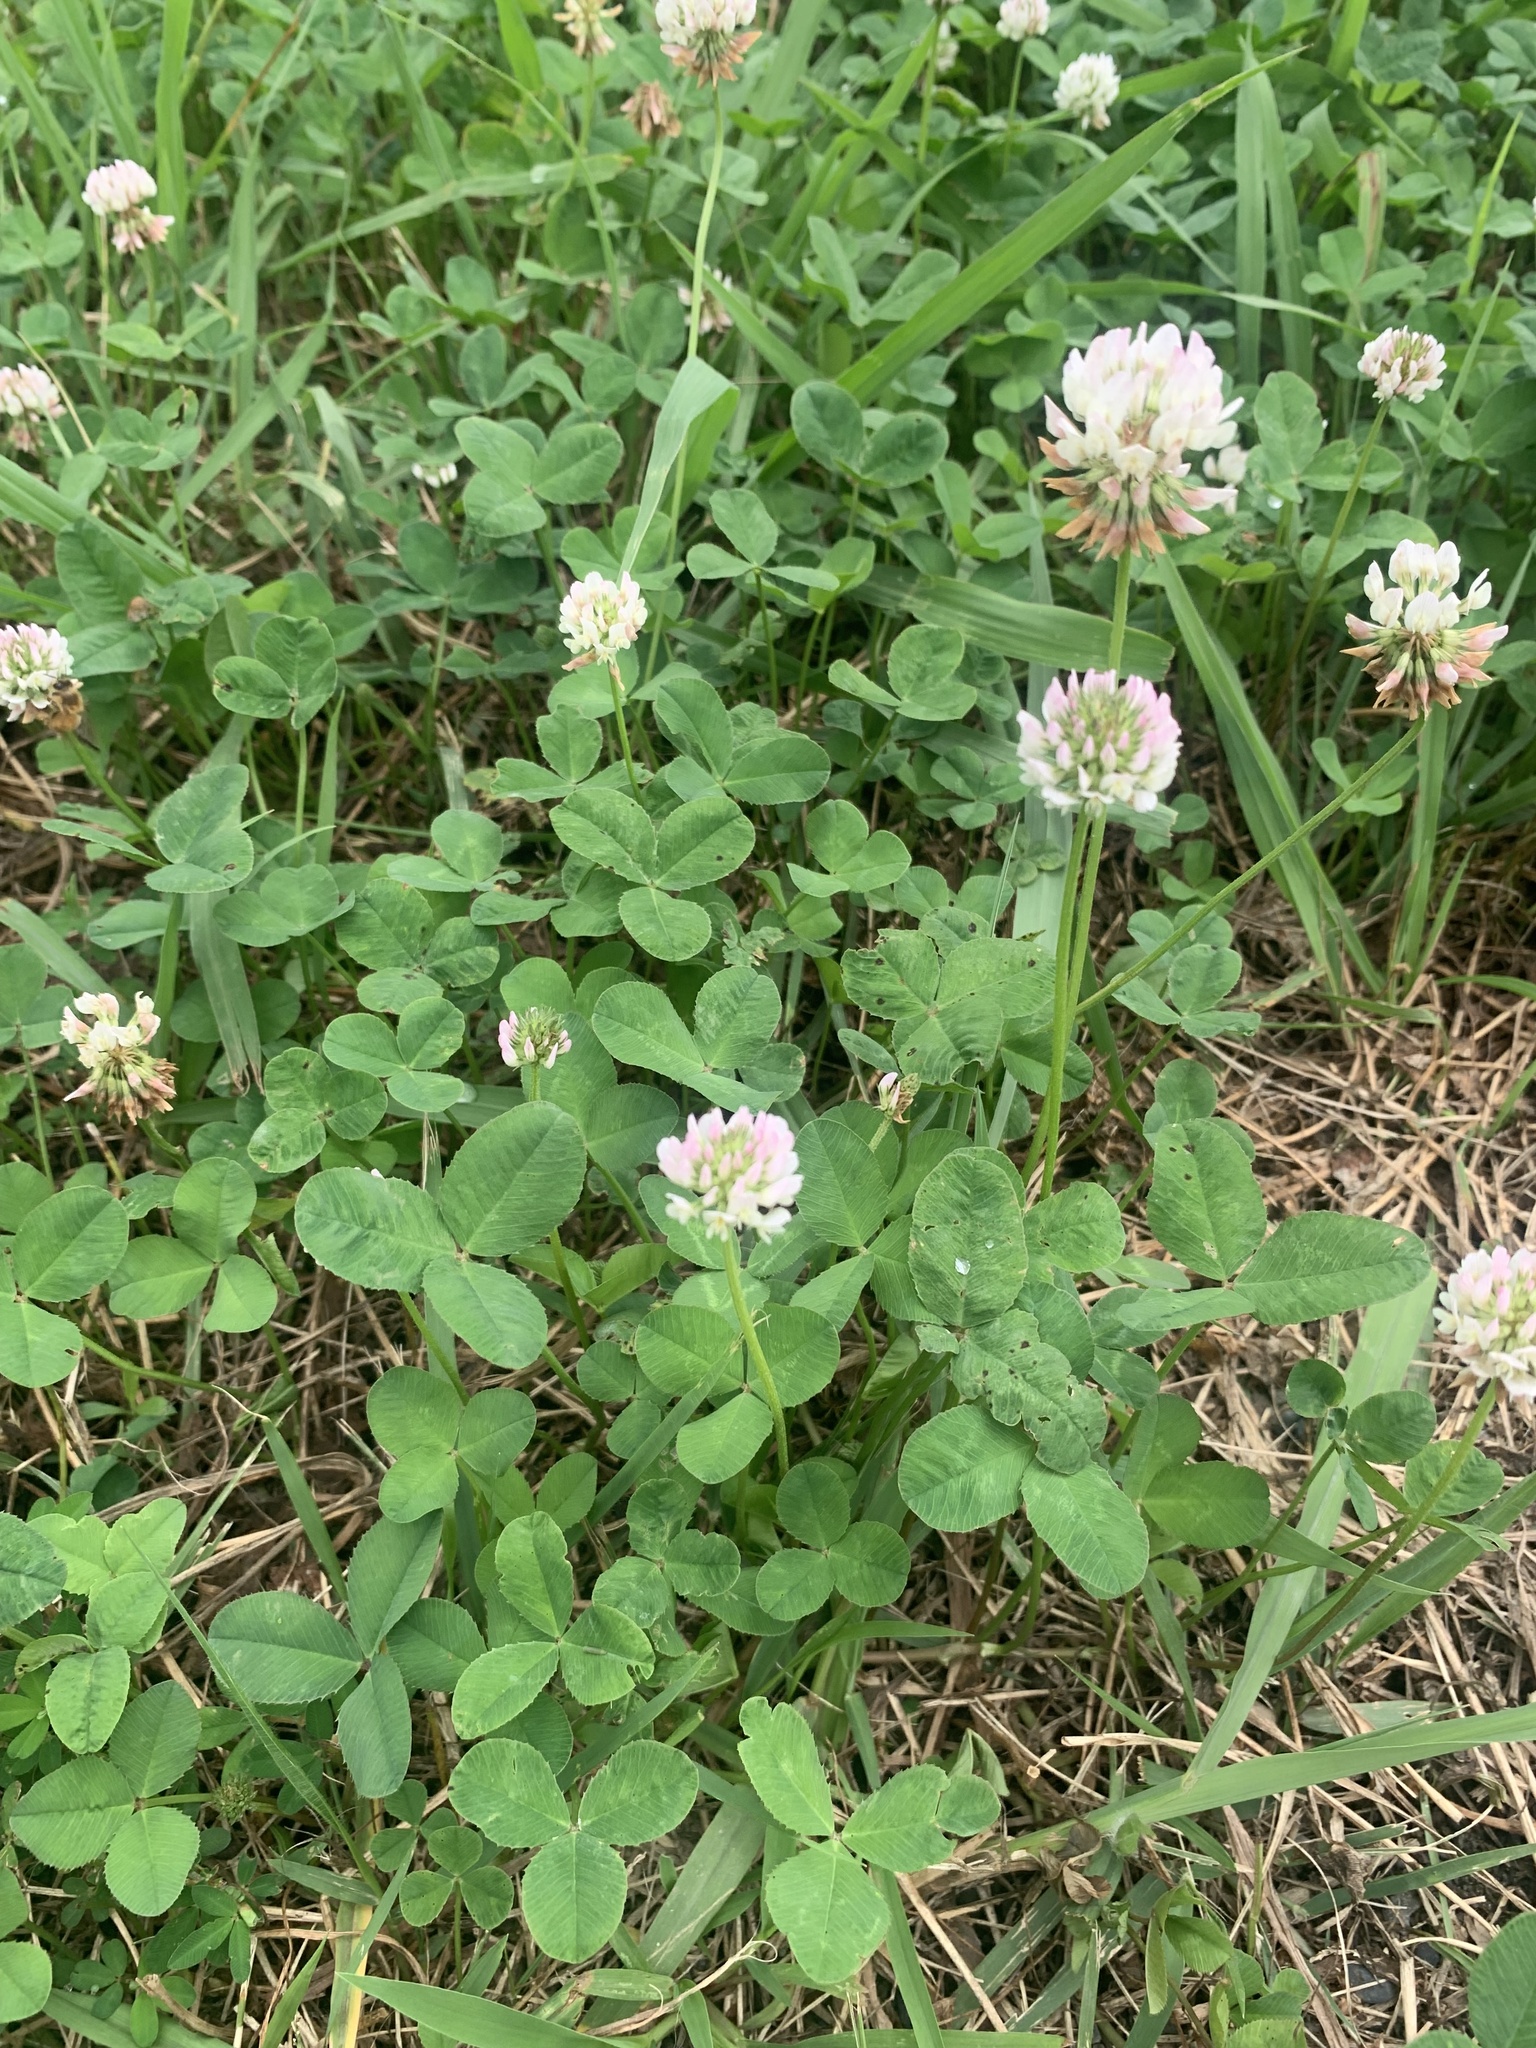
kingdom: Plantae
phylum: Tracheophyta
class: Magnoliopsida
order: Fabales
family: Fabaceae
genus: Trifolium
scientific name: Trifolium repens
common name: White clover
